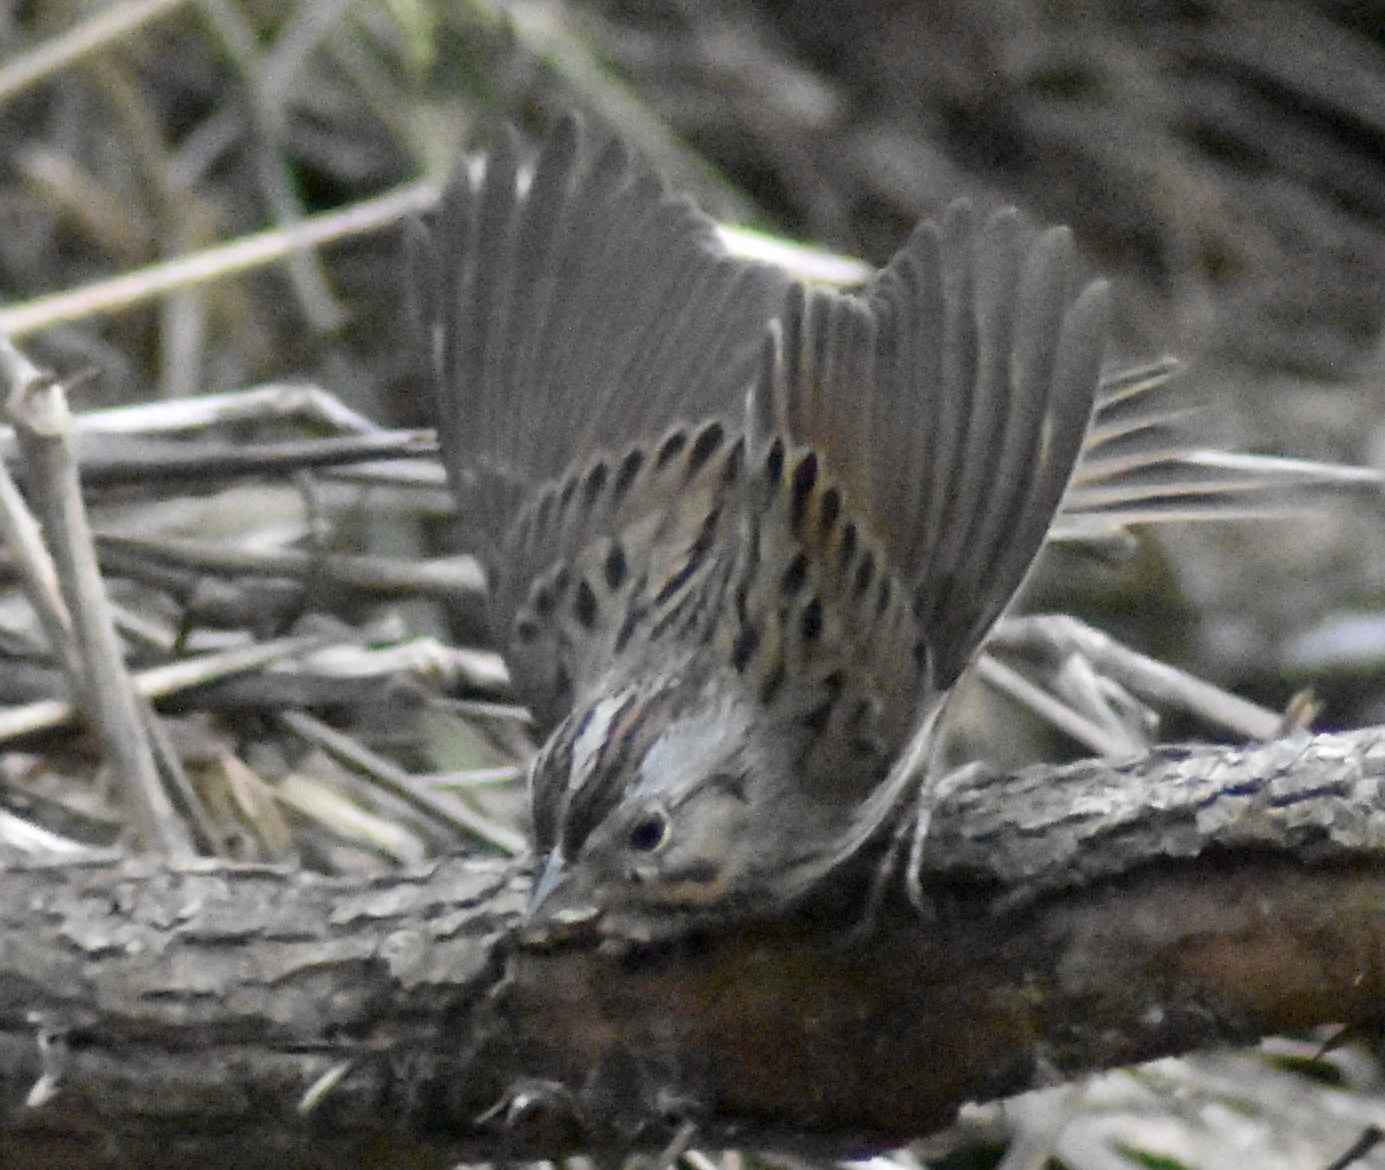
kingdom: Animalia
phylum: Chordata
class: Aves
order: Passeriformes
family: Passerellidae
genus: Melospiza
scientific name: Melospiza lincolnii
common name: Lincoln's sparrow
